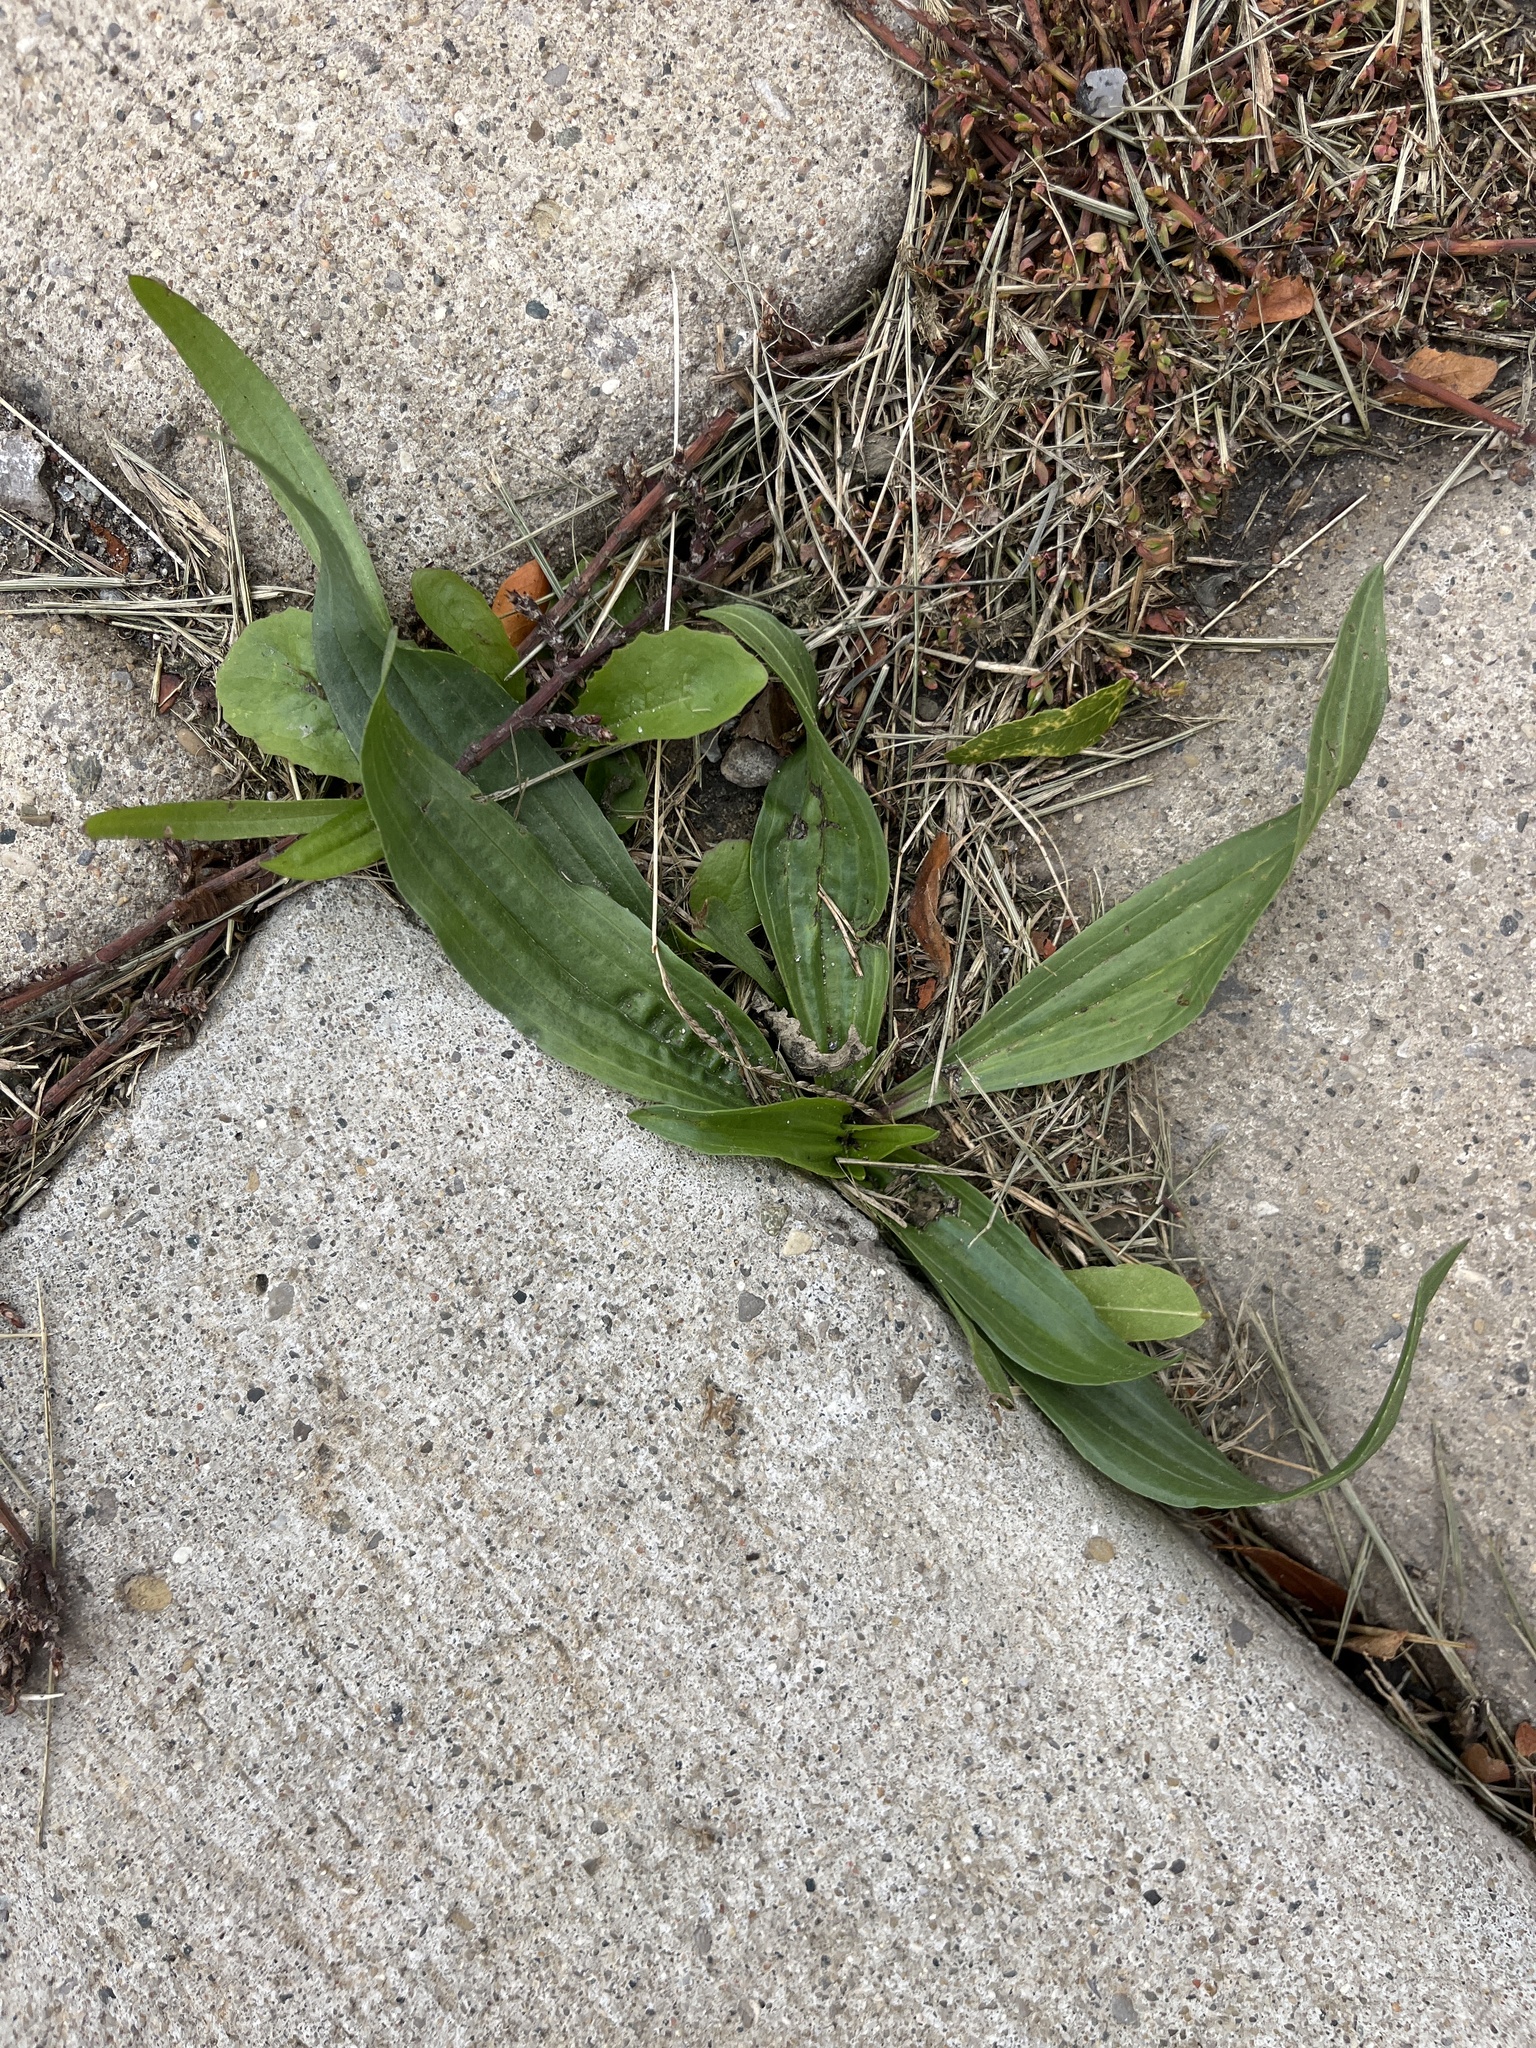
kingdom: Plantae
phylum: Tracheophyta
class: Magnoliopsida
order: Lamiales
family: Plantaginaceae
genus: Plantago
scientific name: Plantago lanceolata
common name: Ribwort plantain
